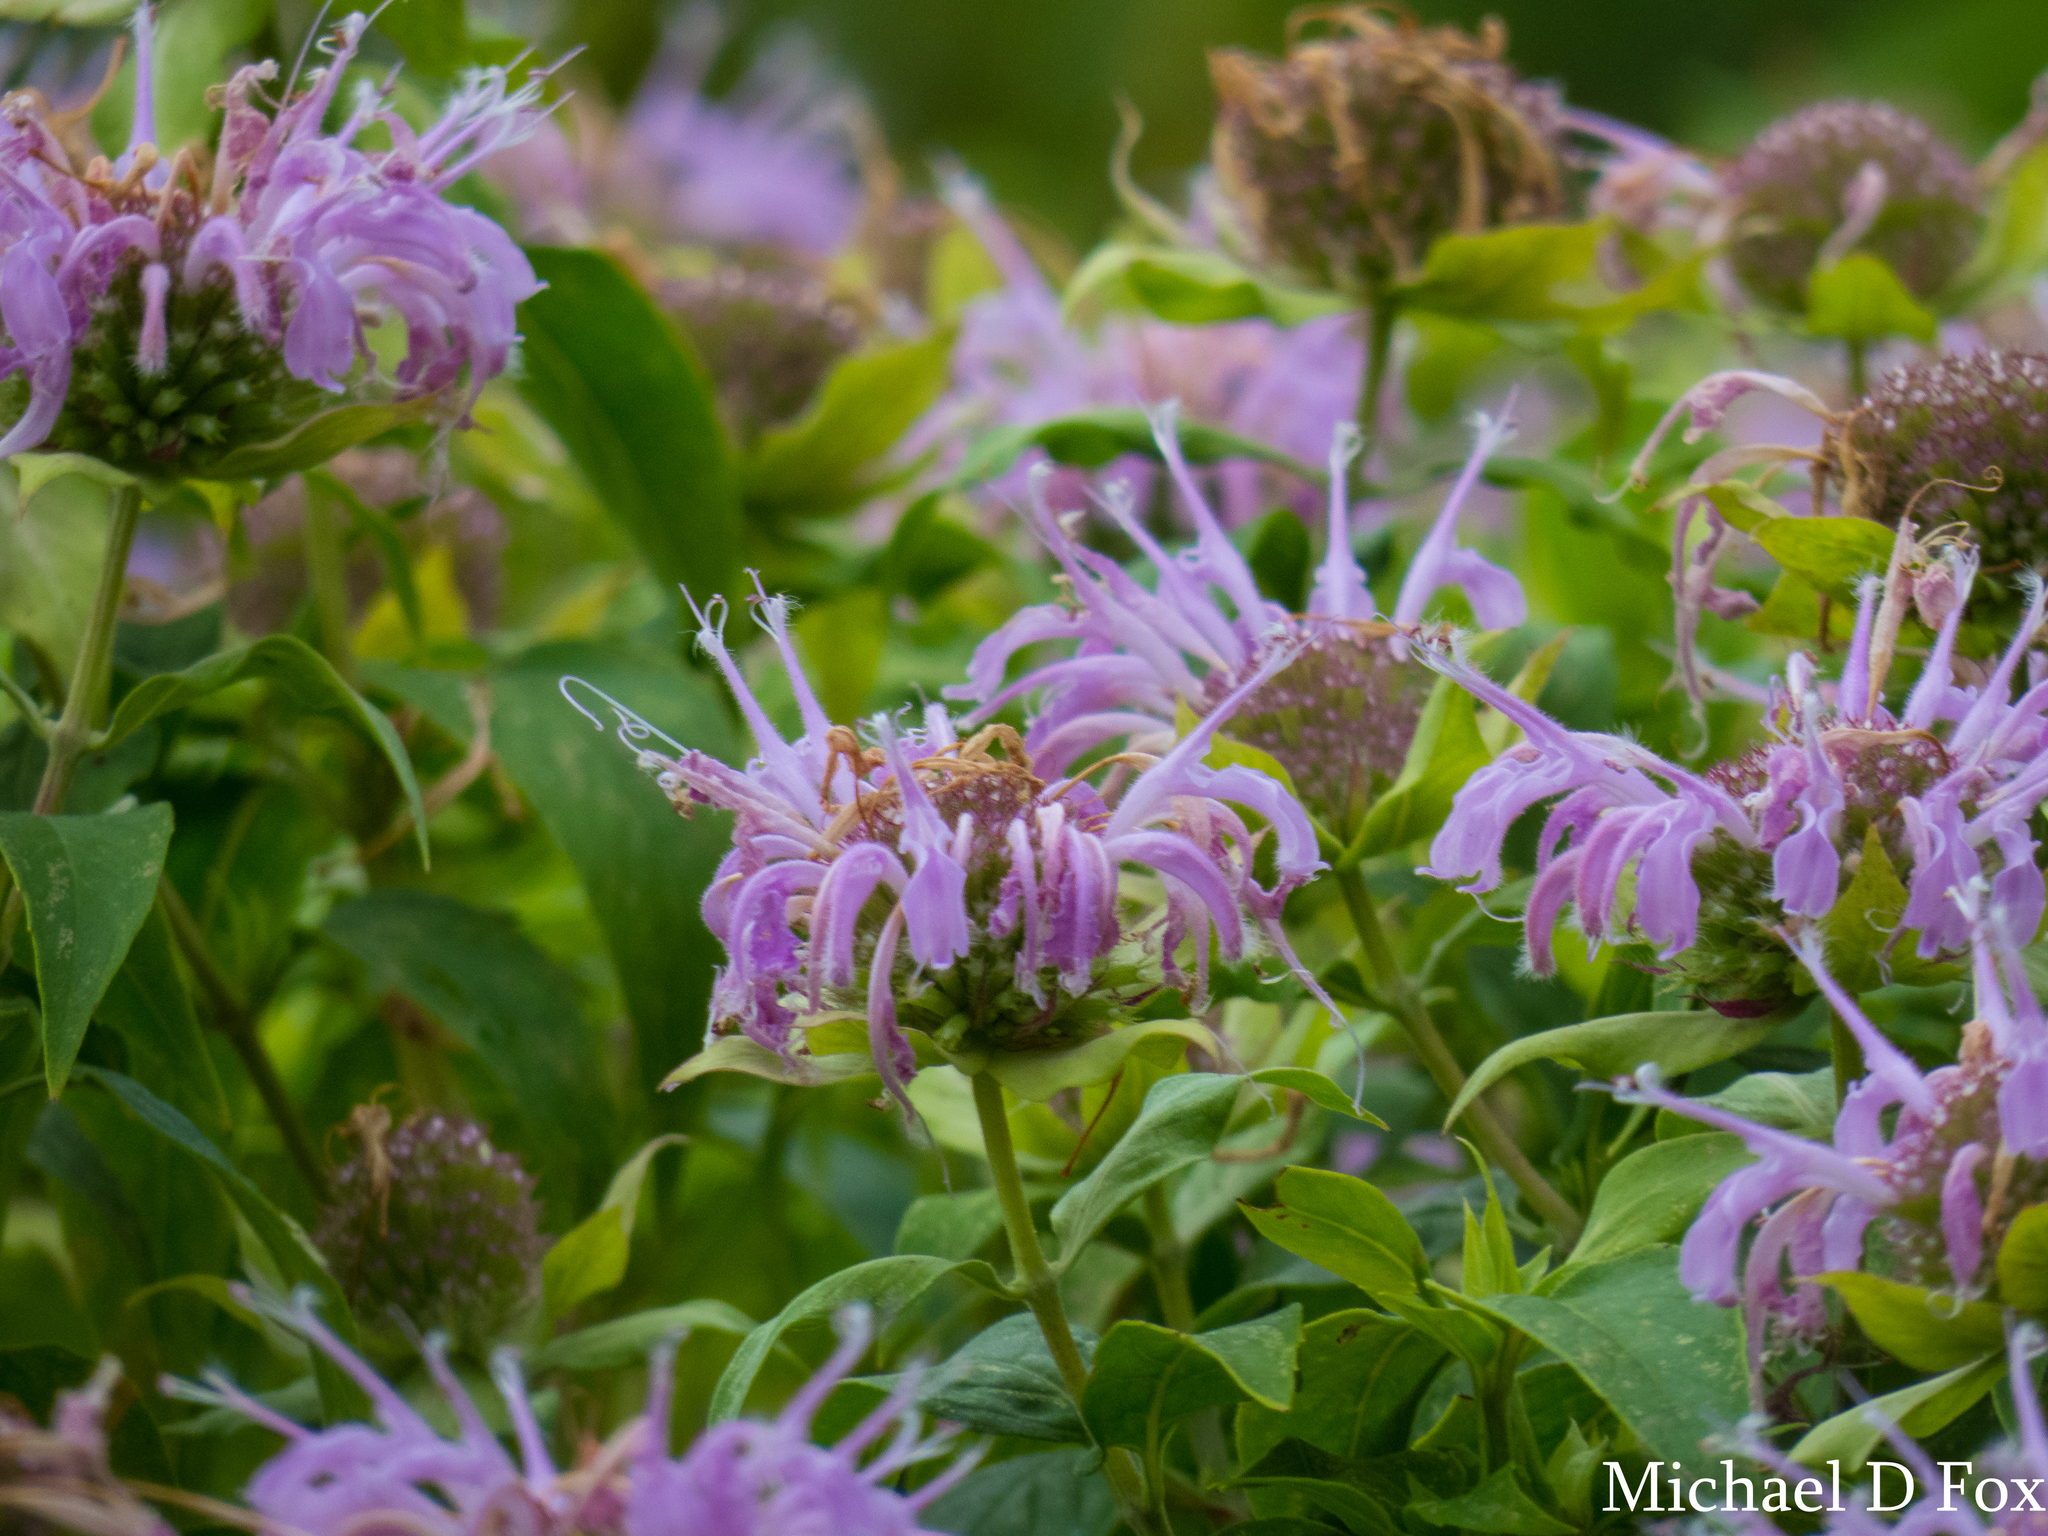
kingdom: Plantae
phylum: Tracheophyta
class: Magnoliopsida
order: Lamiales
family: Lamiaceae
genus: Monarda
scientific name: Monarda fistulosa
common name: Purple beebalm
